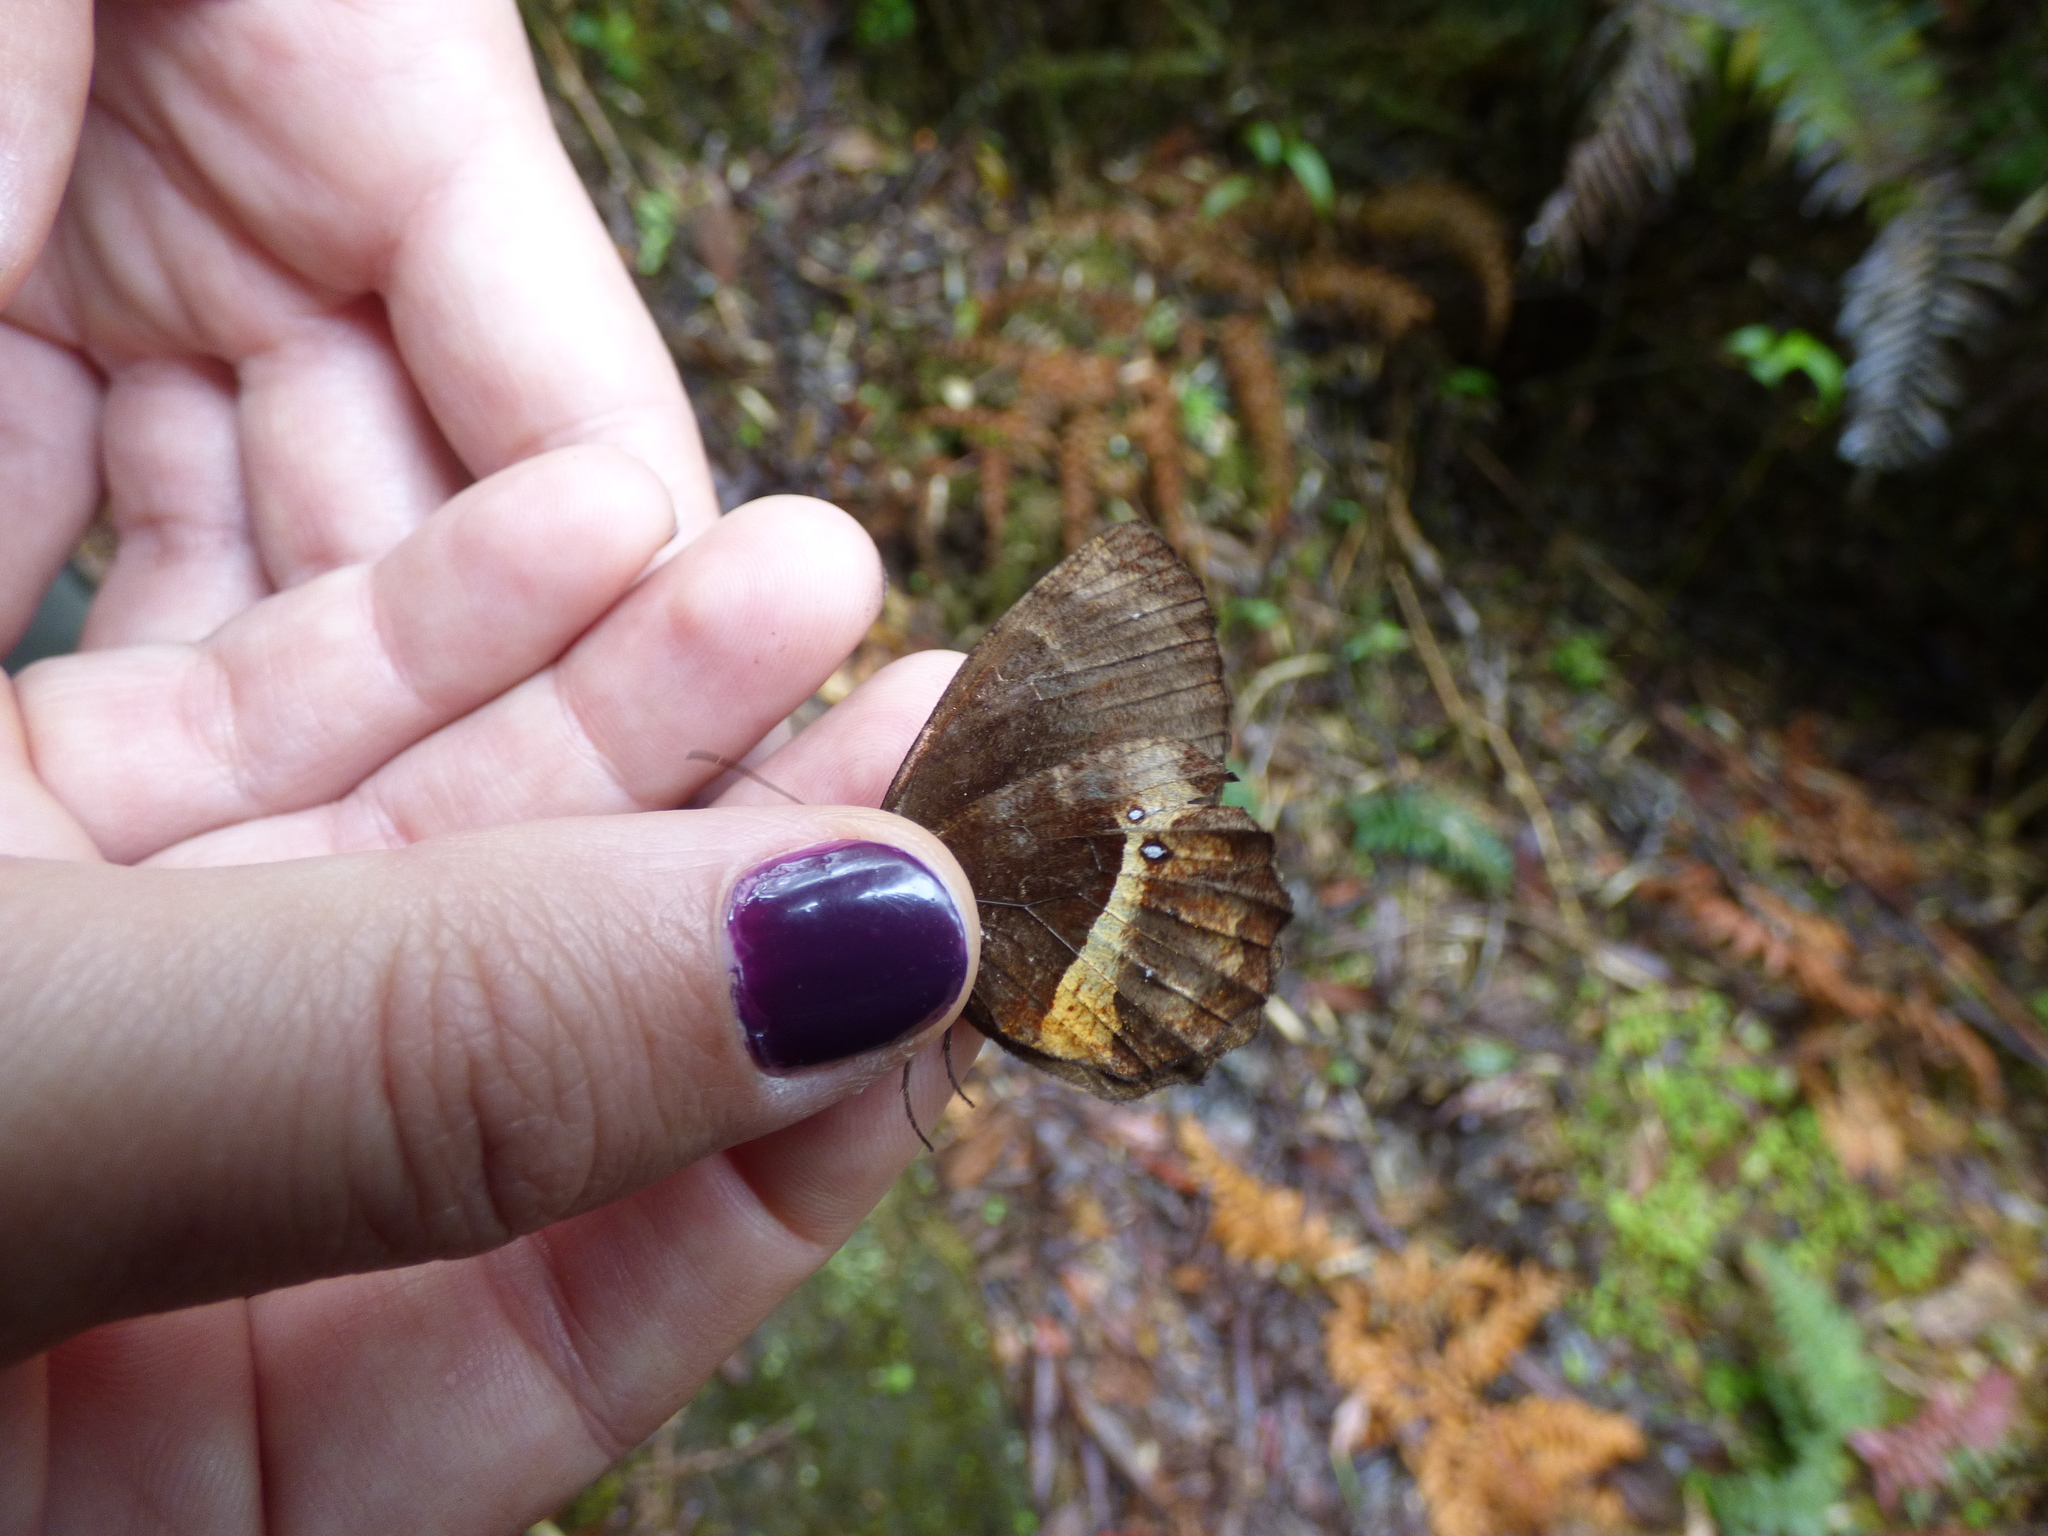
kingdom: Animalia
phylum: Arthropoda
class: Insecta
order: Lepidoptera
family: Nymphalidae
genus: Pedaliodes
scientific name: Pedaliodes pausia
